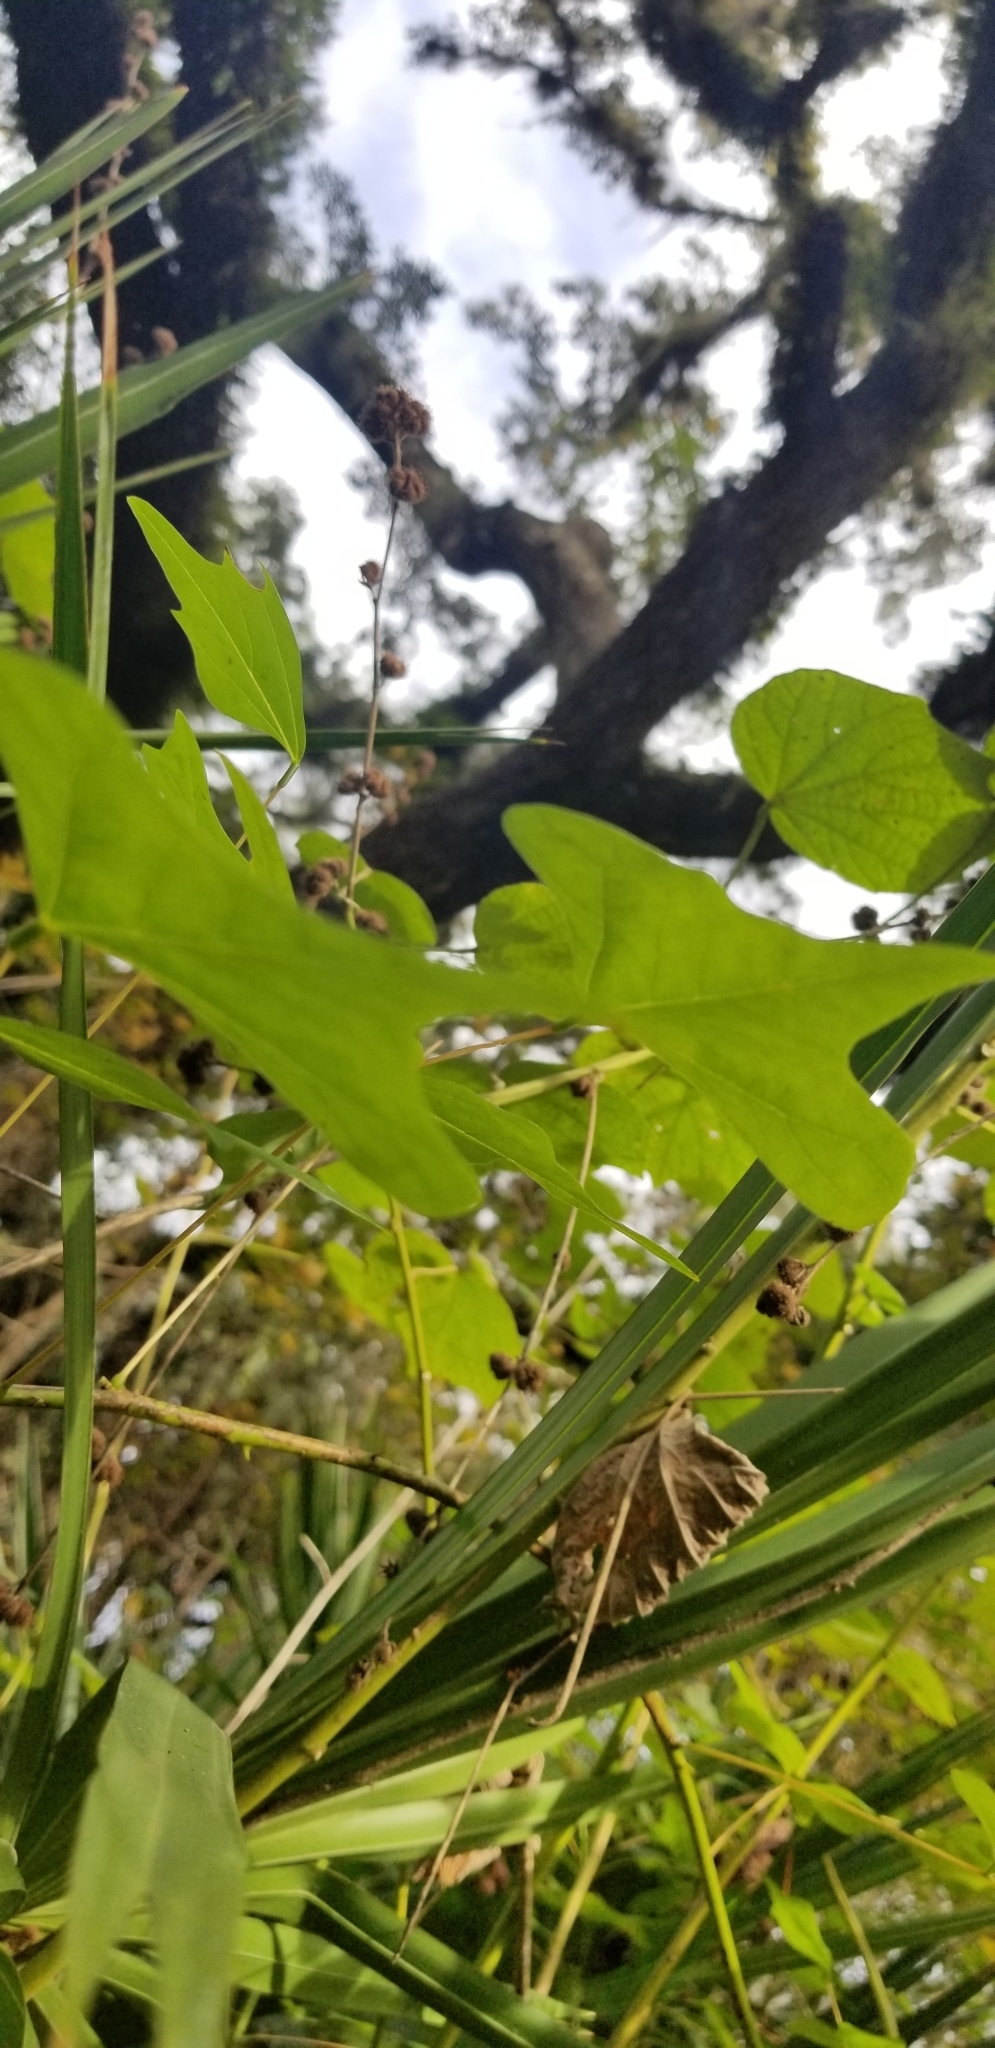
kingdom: Plantae
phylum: Tracheophyta
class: Magnoliopsida
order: Fabales
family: Fabaceae
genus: Erythrina
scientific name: Erythrina herbacea
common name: Coral-bean
